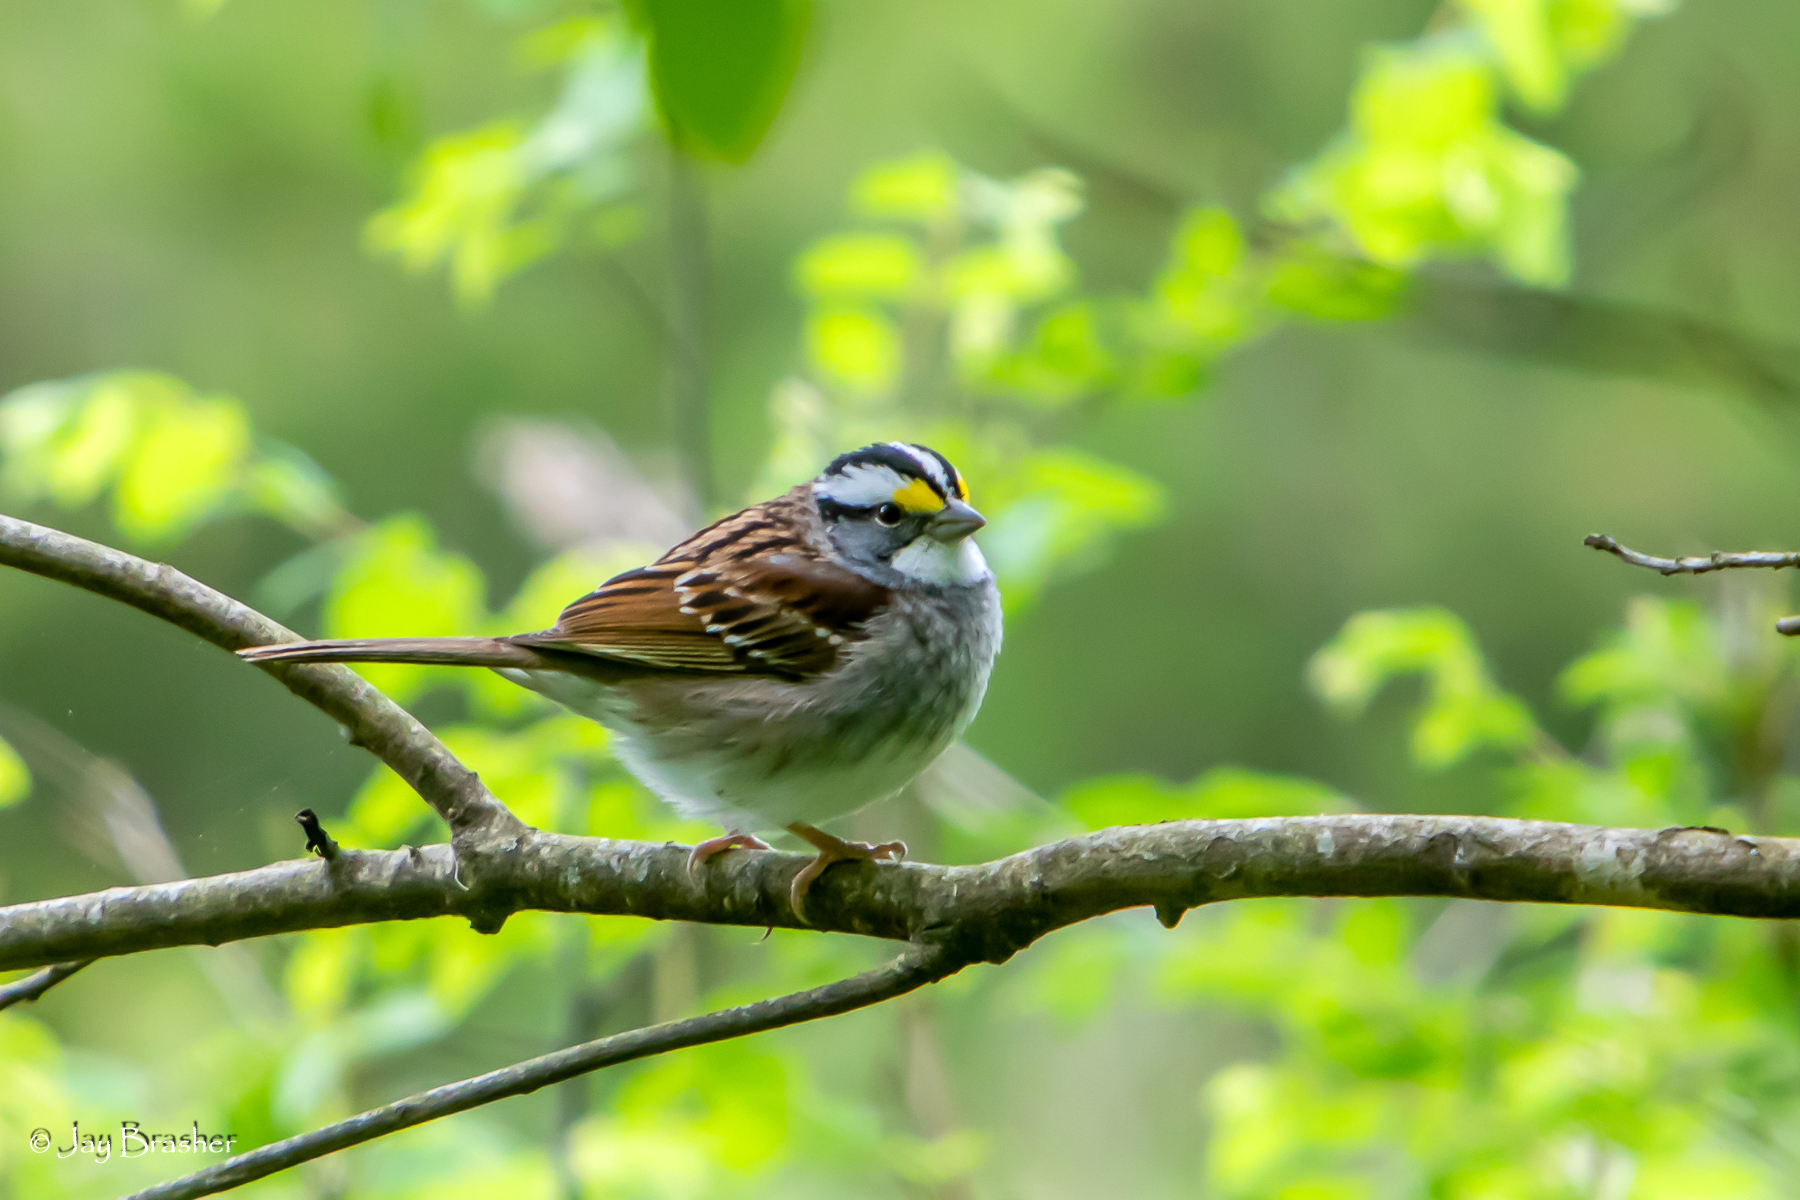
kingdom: Animalia
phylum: Chordata
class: Aves
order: Passeriformes
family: Passerellidae
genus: Zonotrichia
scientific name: Zonotrichia albicollis
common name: White-throated sparrow
